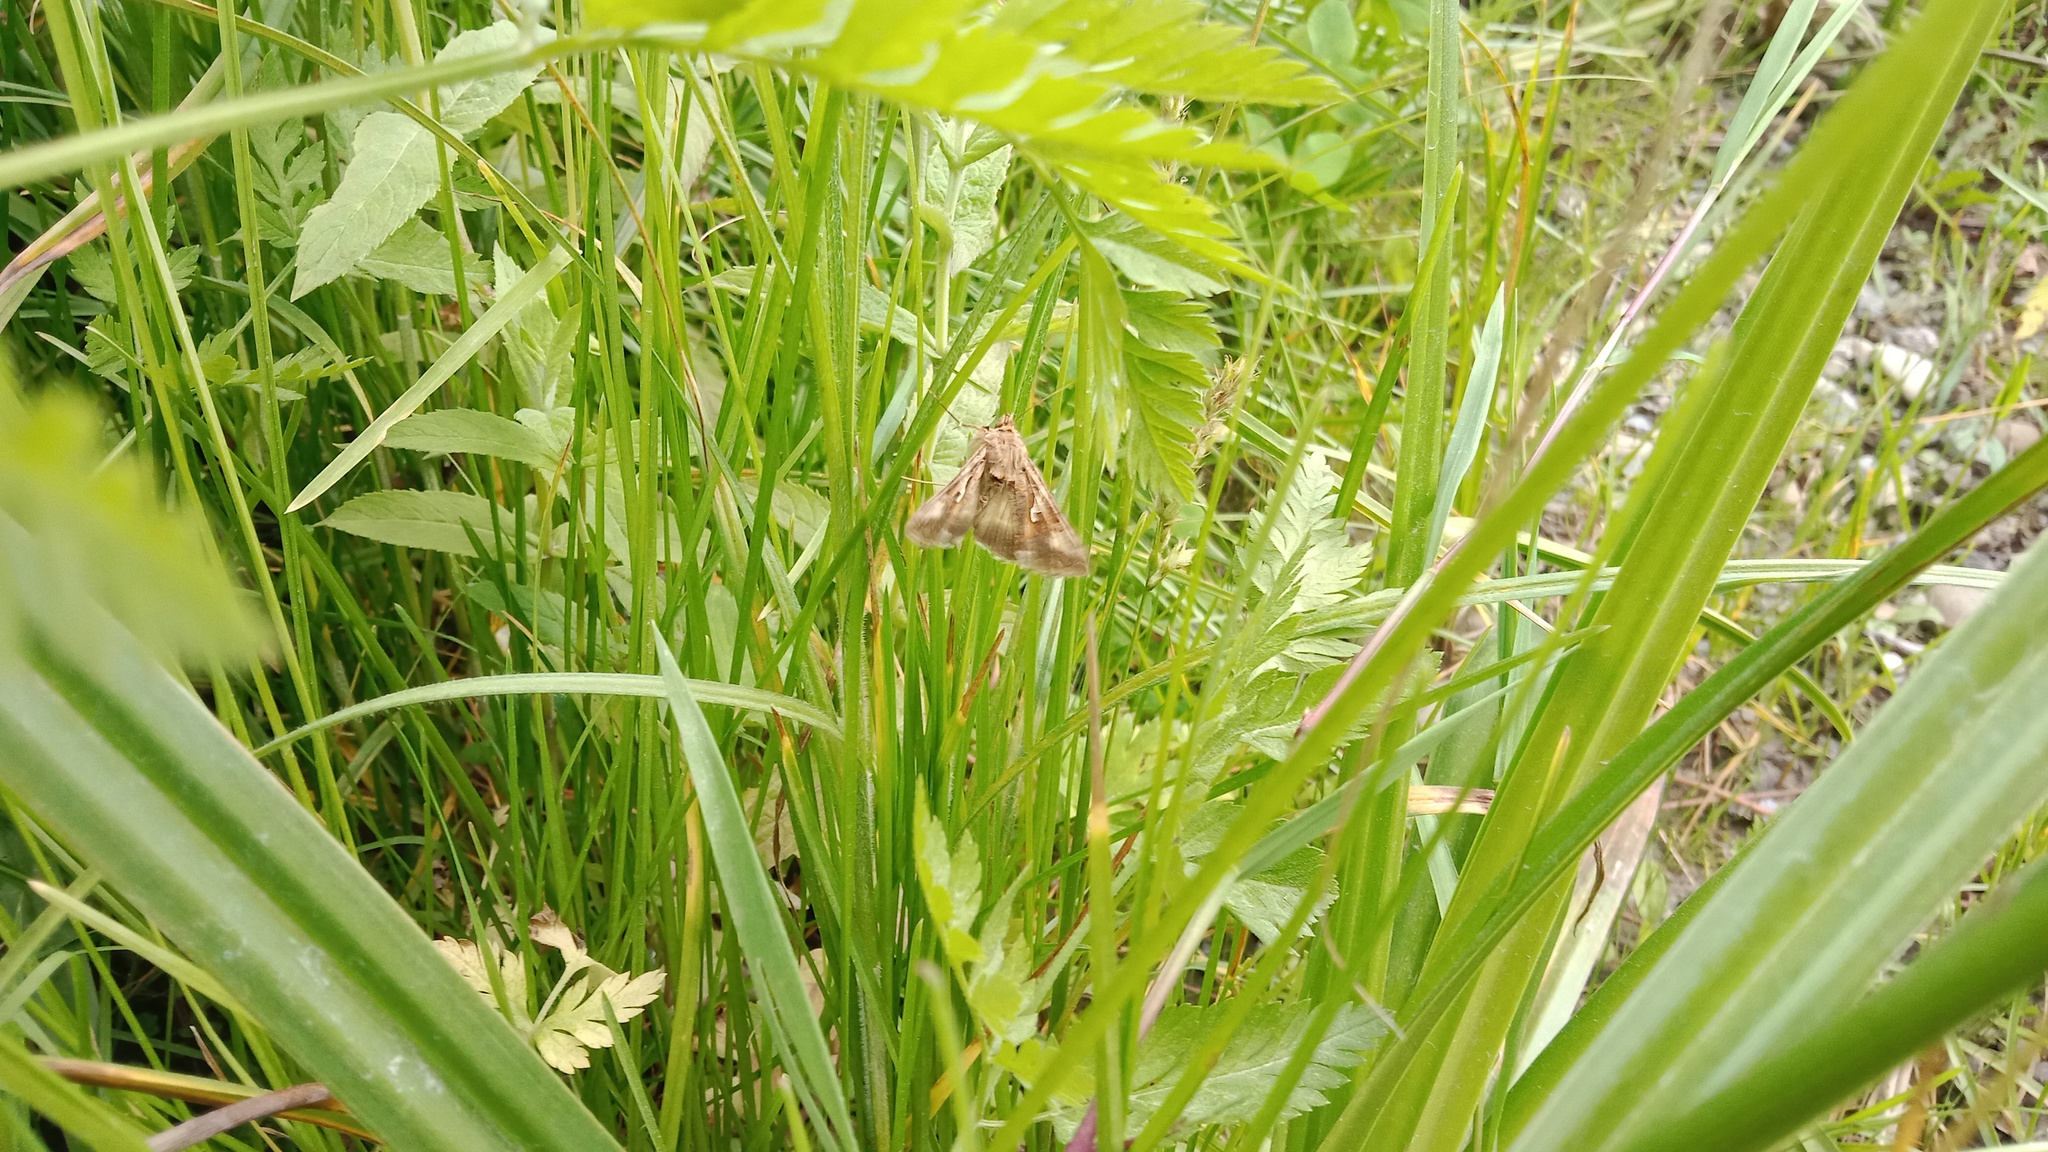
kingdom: Animalia
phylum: Arthropoda
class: Insecta
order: Lepidoptera
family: Noctuidae
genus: Autographa
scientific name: Autographa gamma
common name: Silver y
